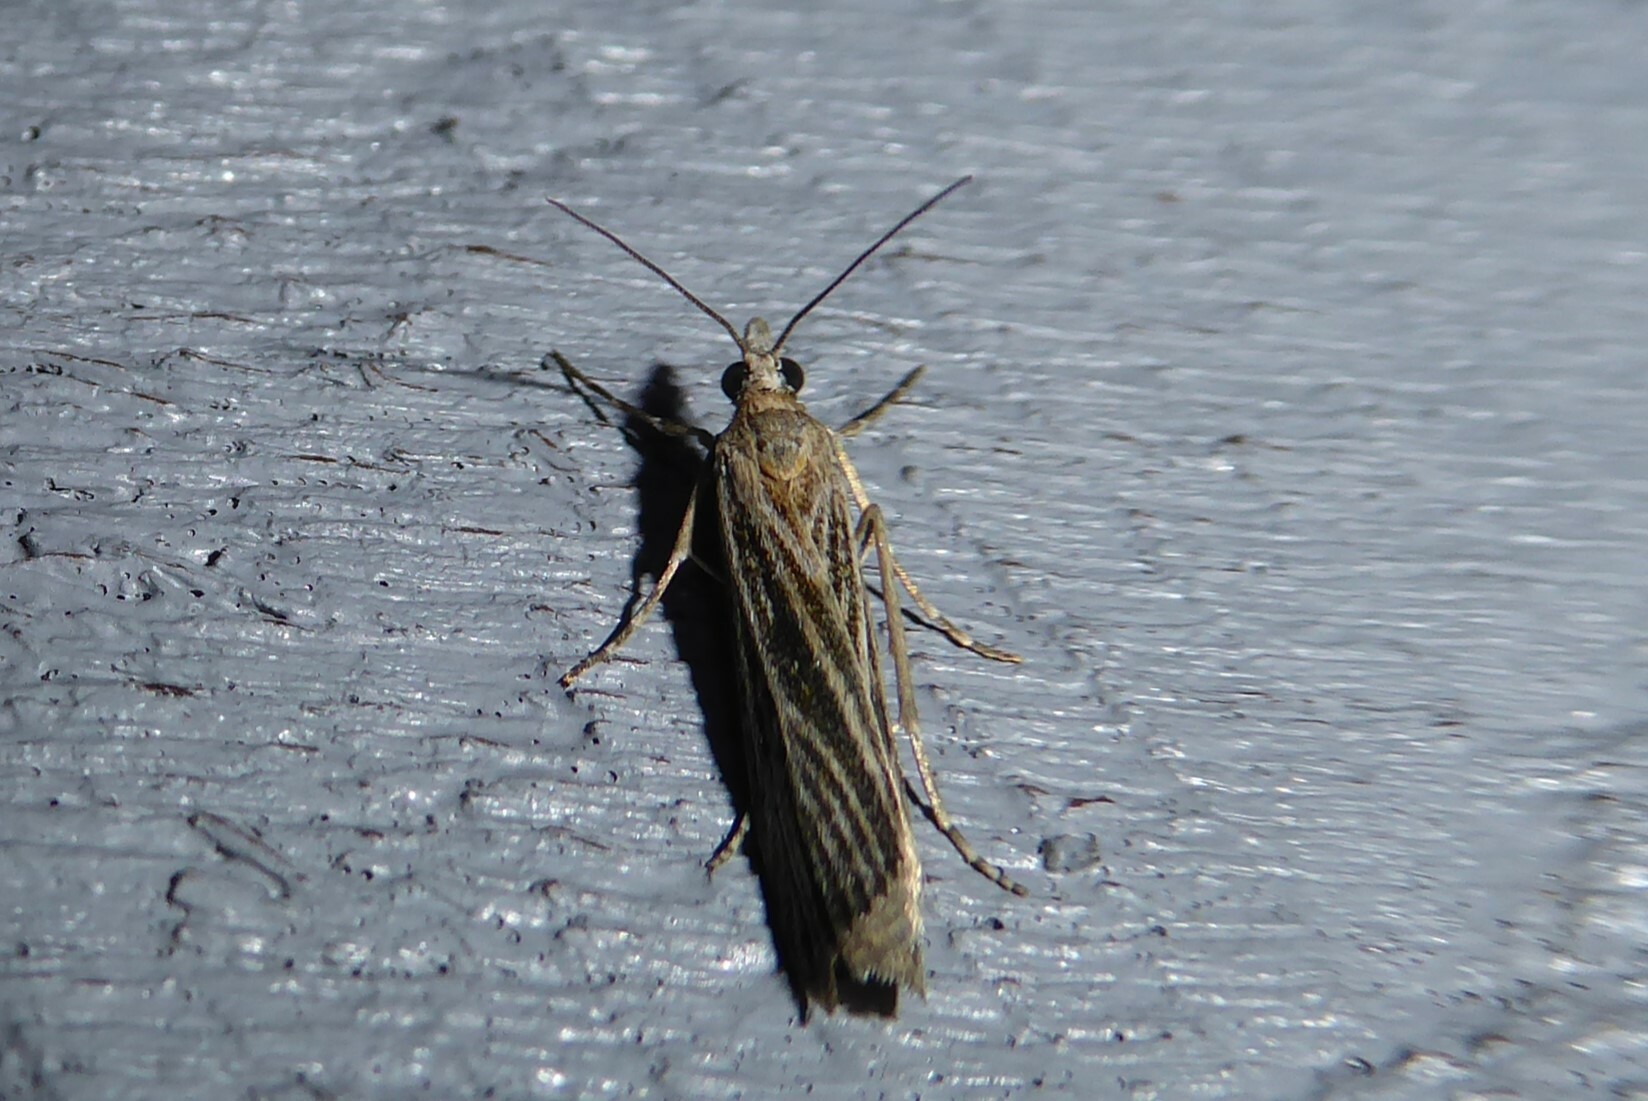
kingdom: Animalia
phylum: Arthropoda
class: Insecta
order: Lepidoptera
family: Crambidae
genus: Eudonia
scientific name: Eudonia atmogramma
